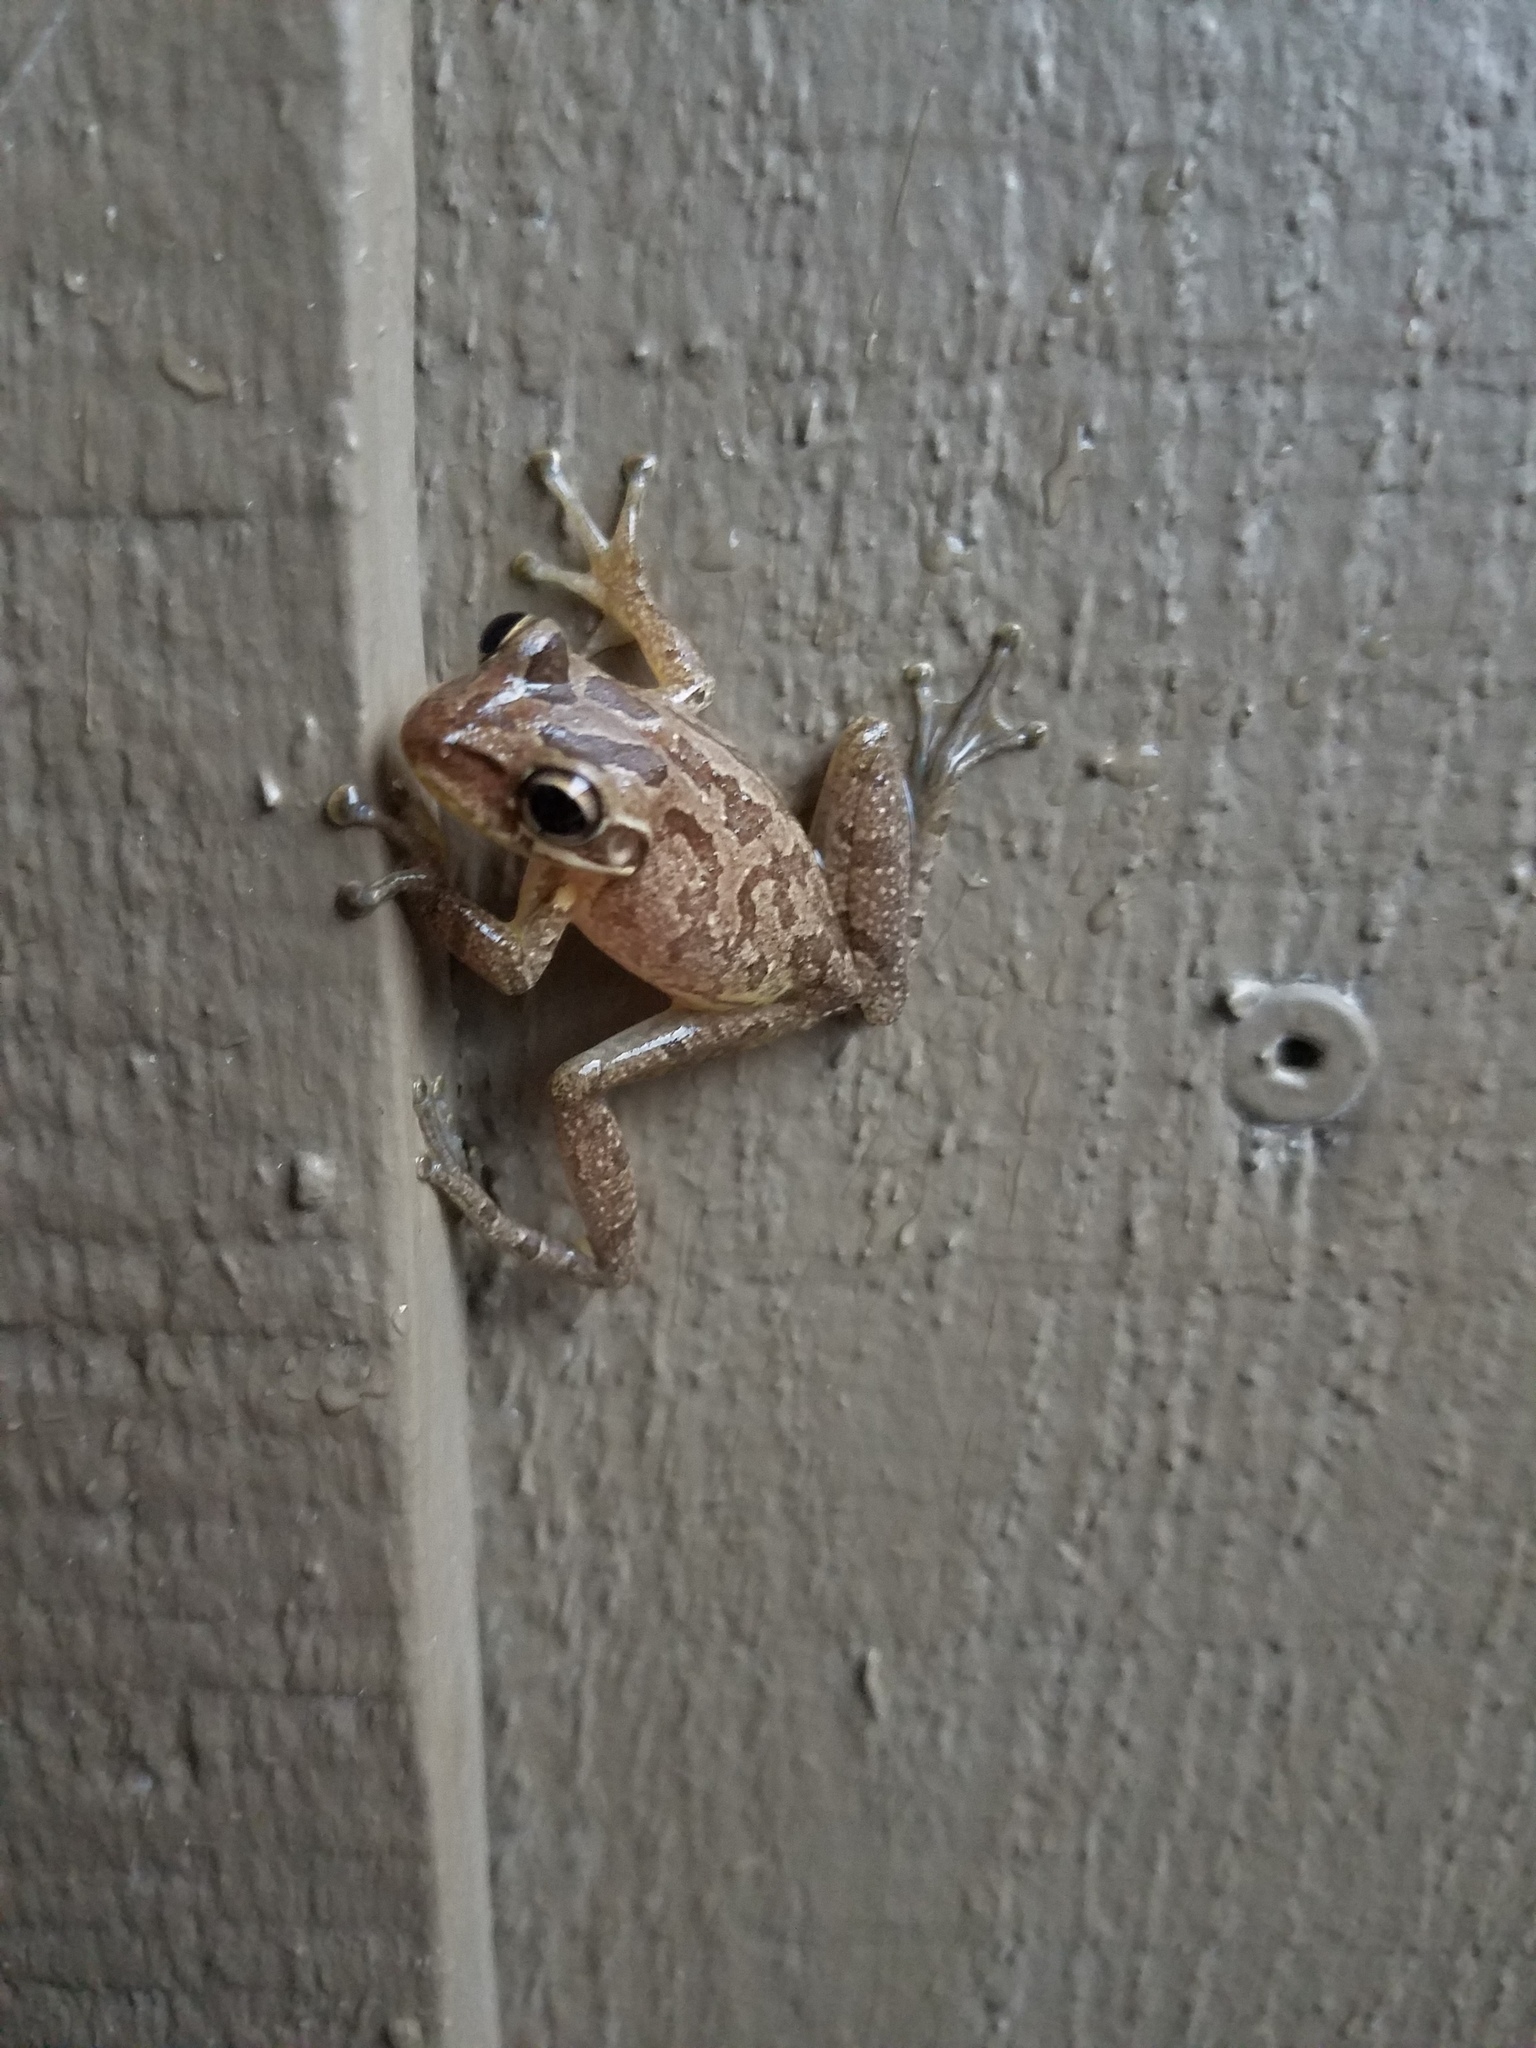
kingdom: Animalia
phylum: Chordata
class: Amphibia
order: Anura
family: Hylidae
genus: Osteopilus
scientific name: Osteopilus septentrionalis
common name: Cuban treefrog
